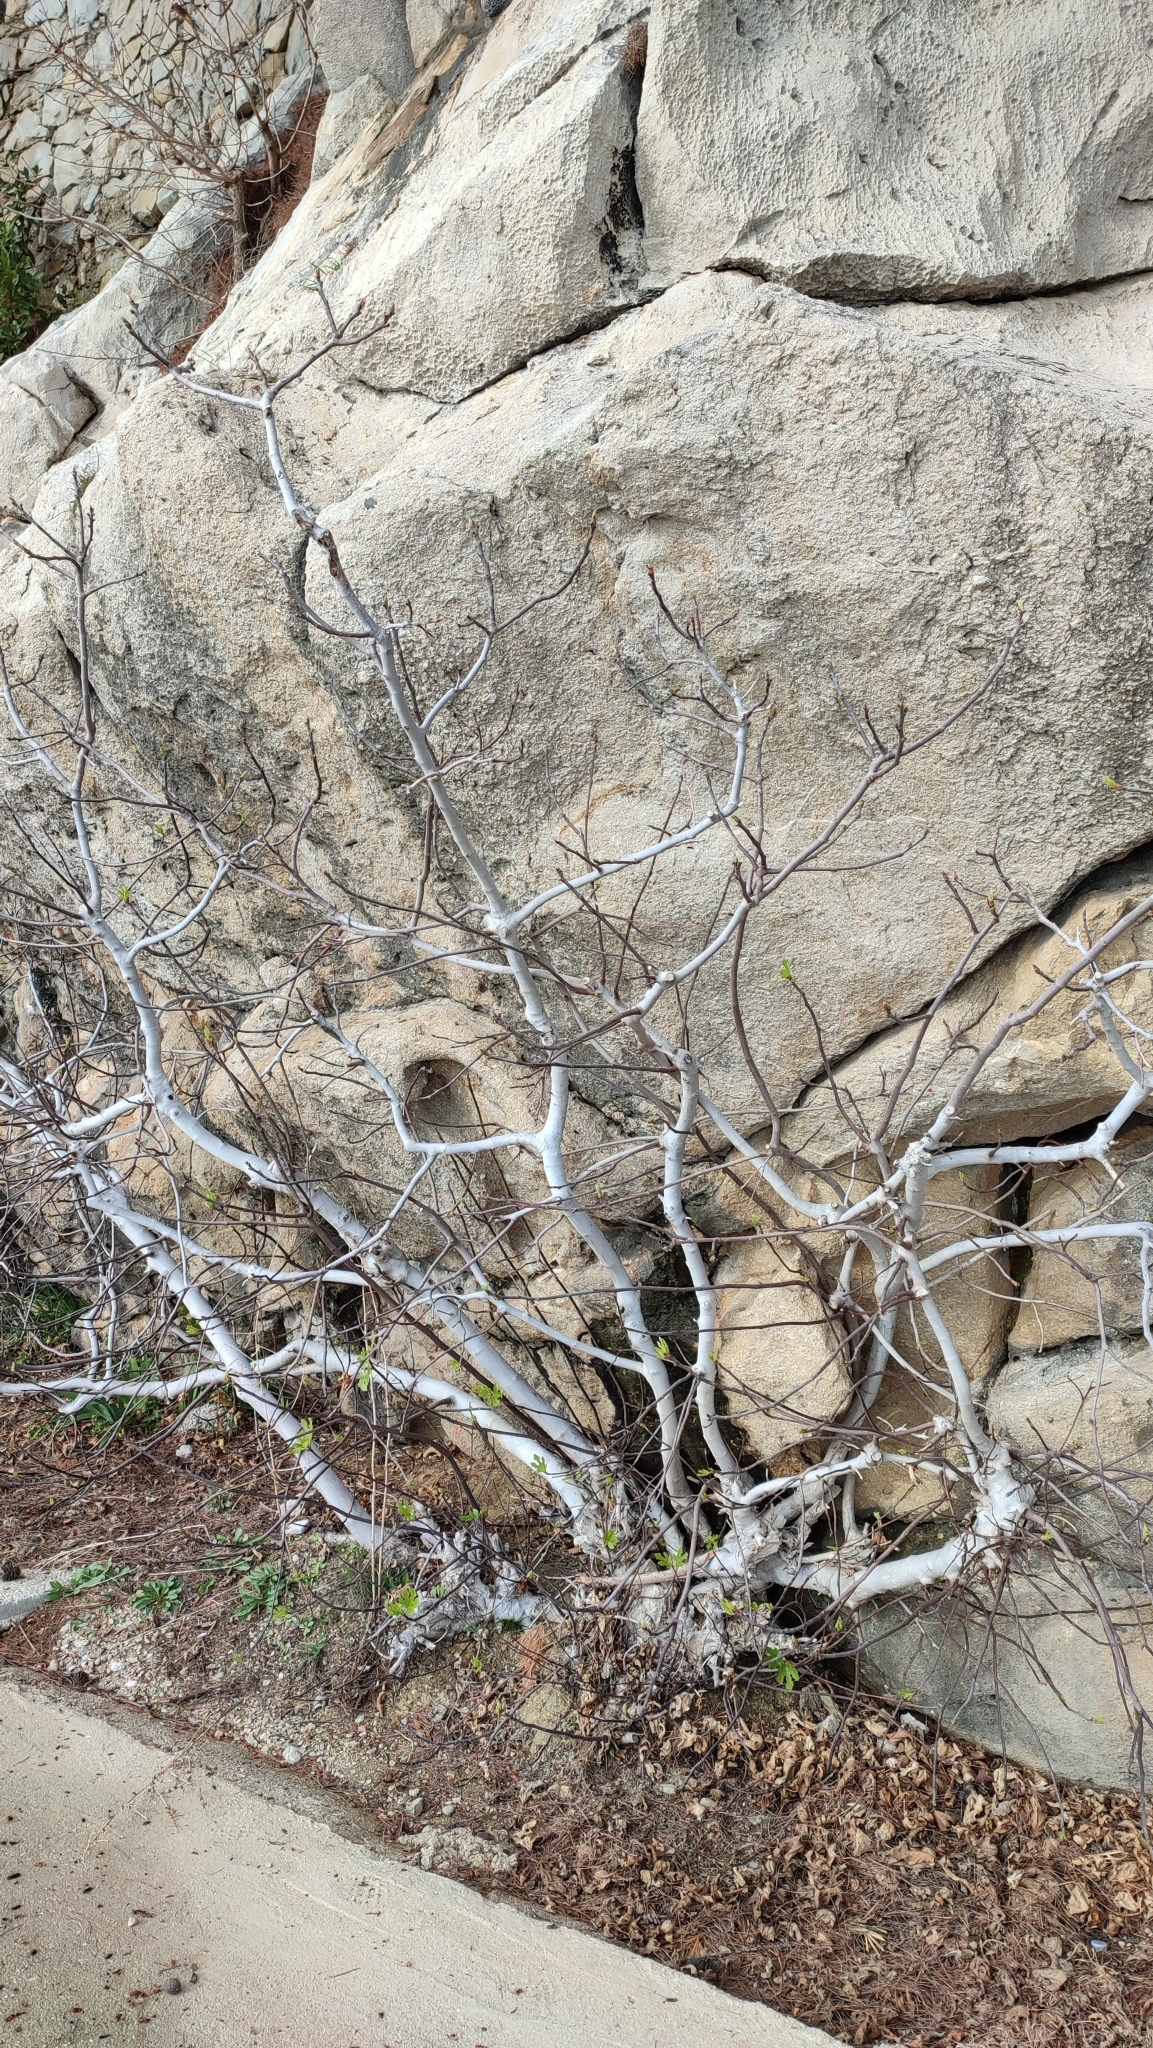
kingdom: Plantae
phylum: Tracheophyta
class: Magnoliopsida
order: Rosales
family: Moraceae
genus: Ficus
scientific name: Ficus carica
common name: Fig
